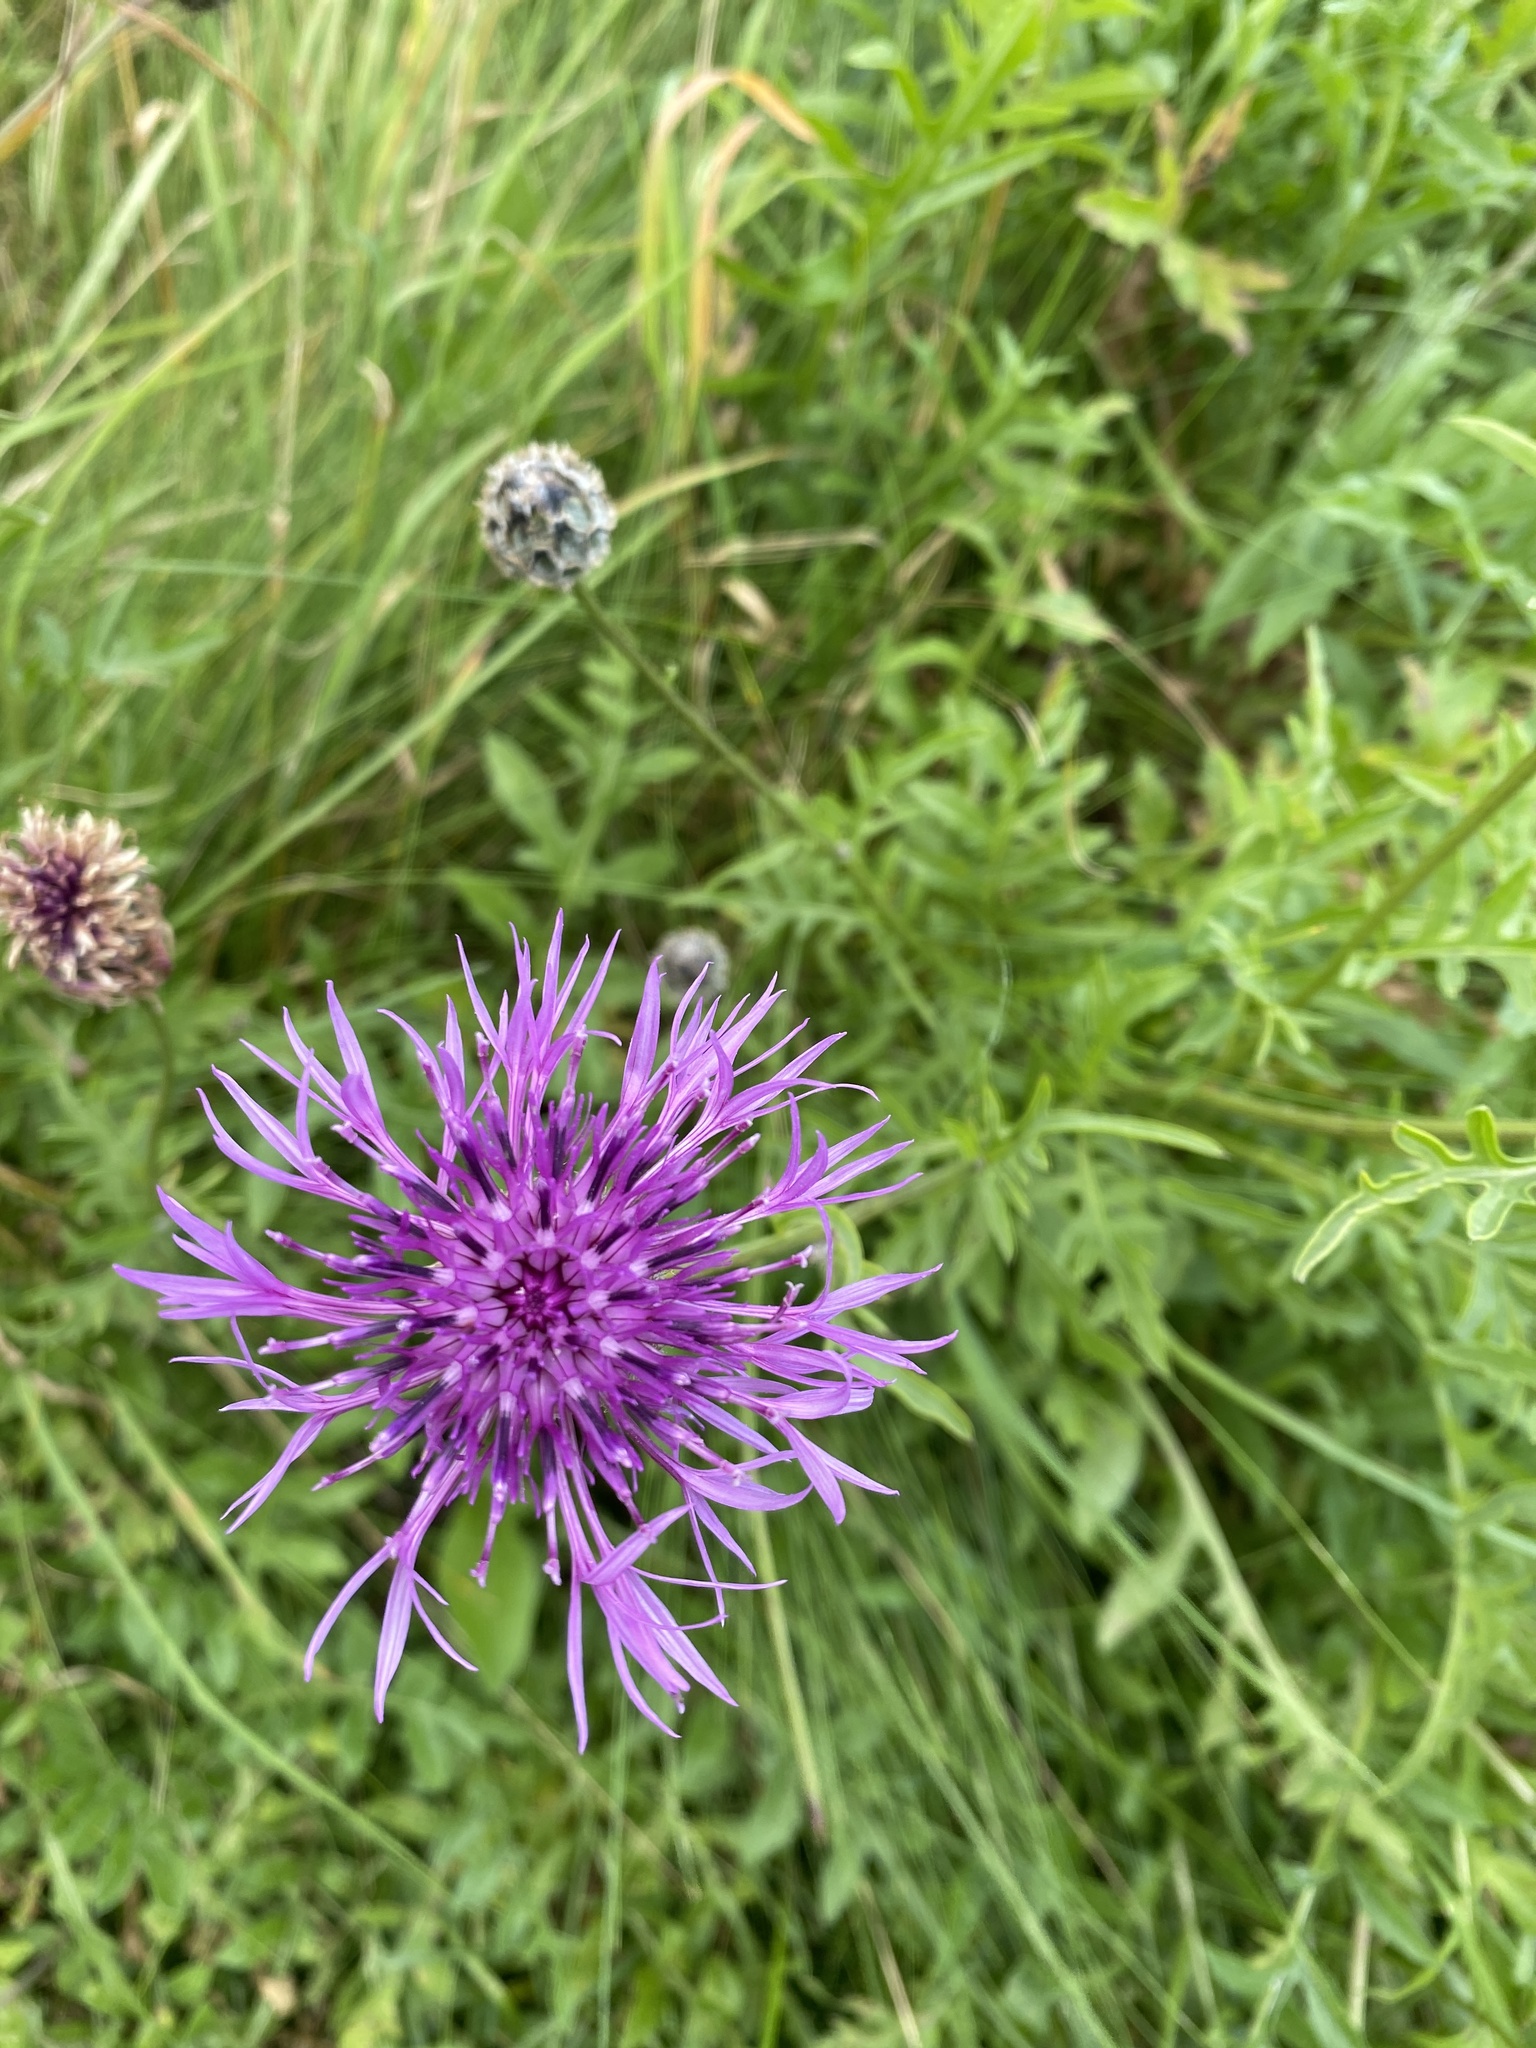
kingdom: Plantae
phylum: Tracheophyta
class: Magnoliopsida
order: Asterales
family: Asteraceae
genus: Centaurea
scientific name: Centaurea scabiosa
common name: Greater knapweed
